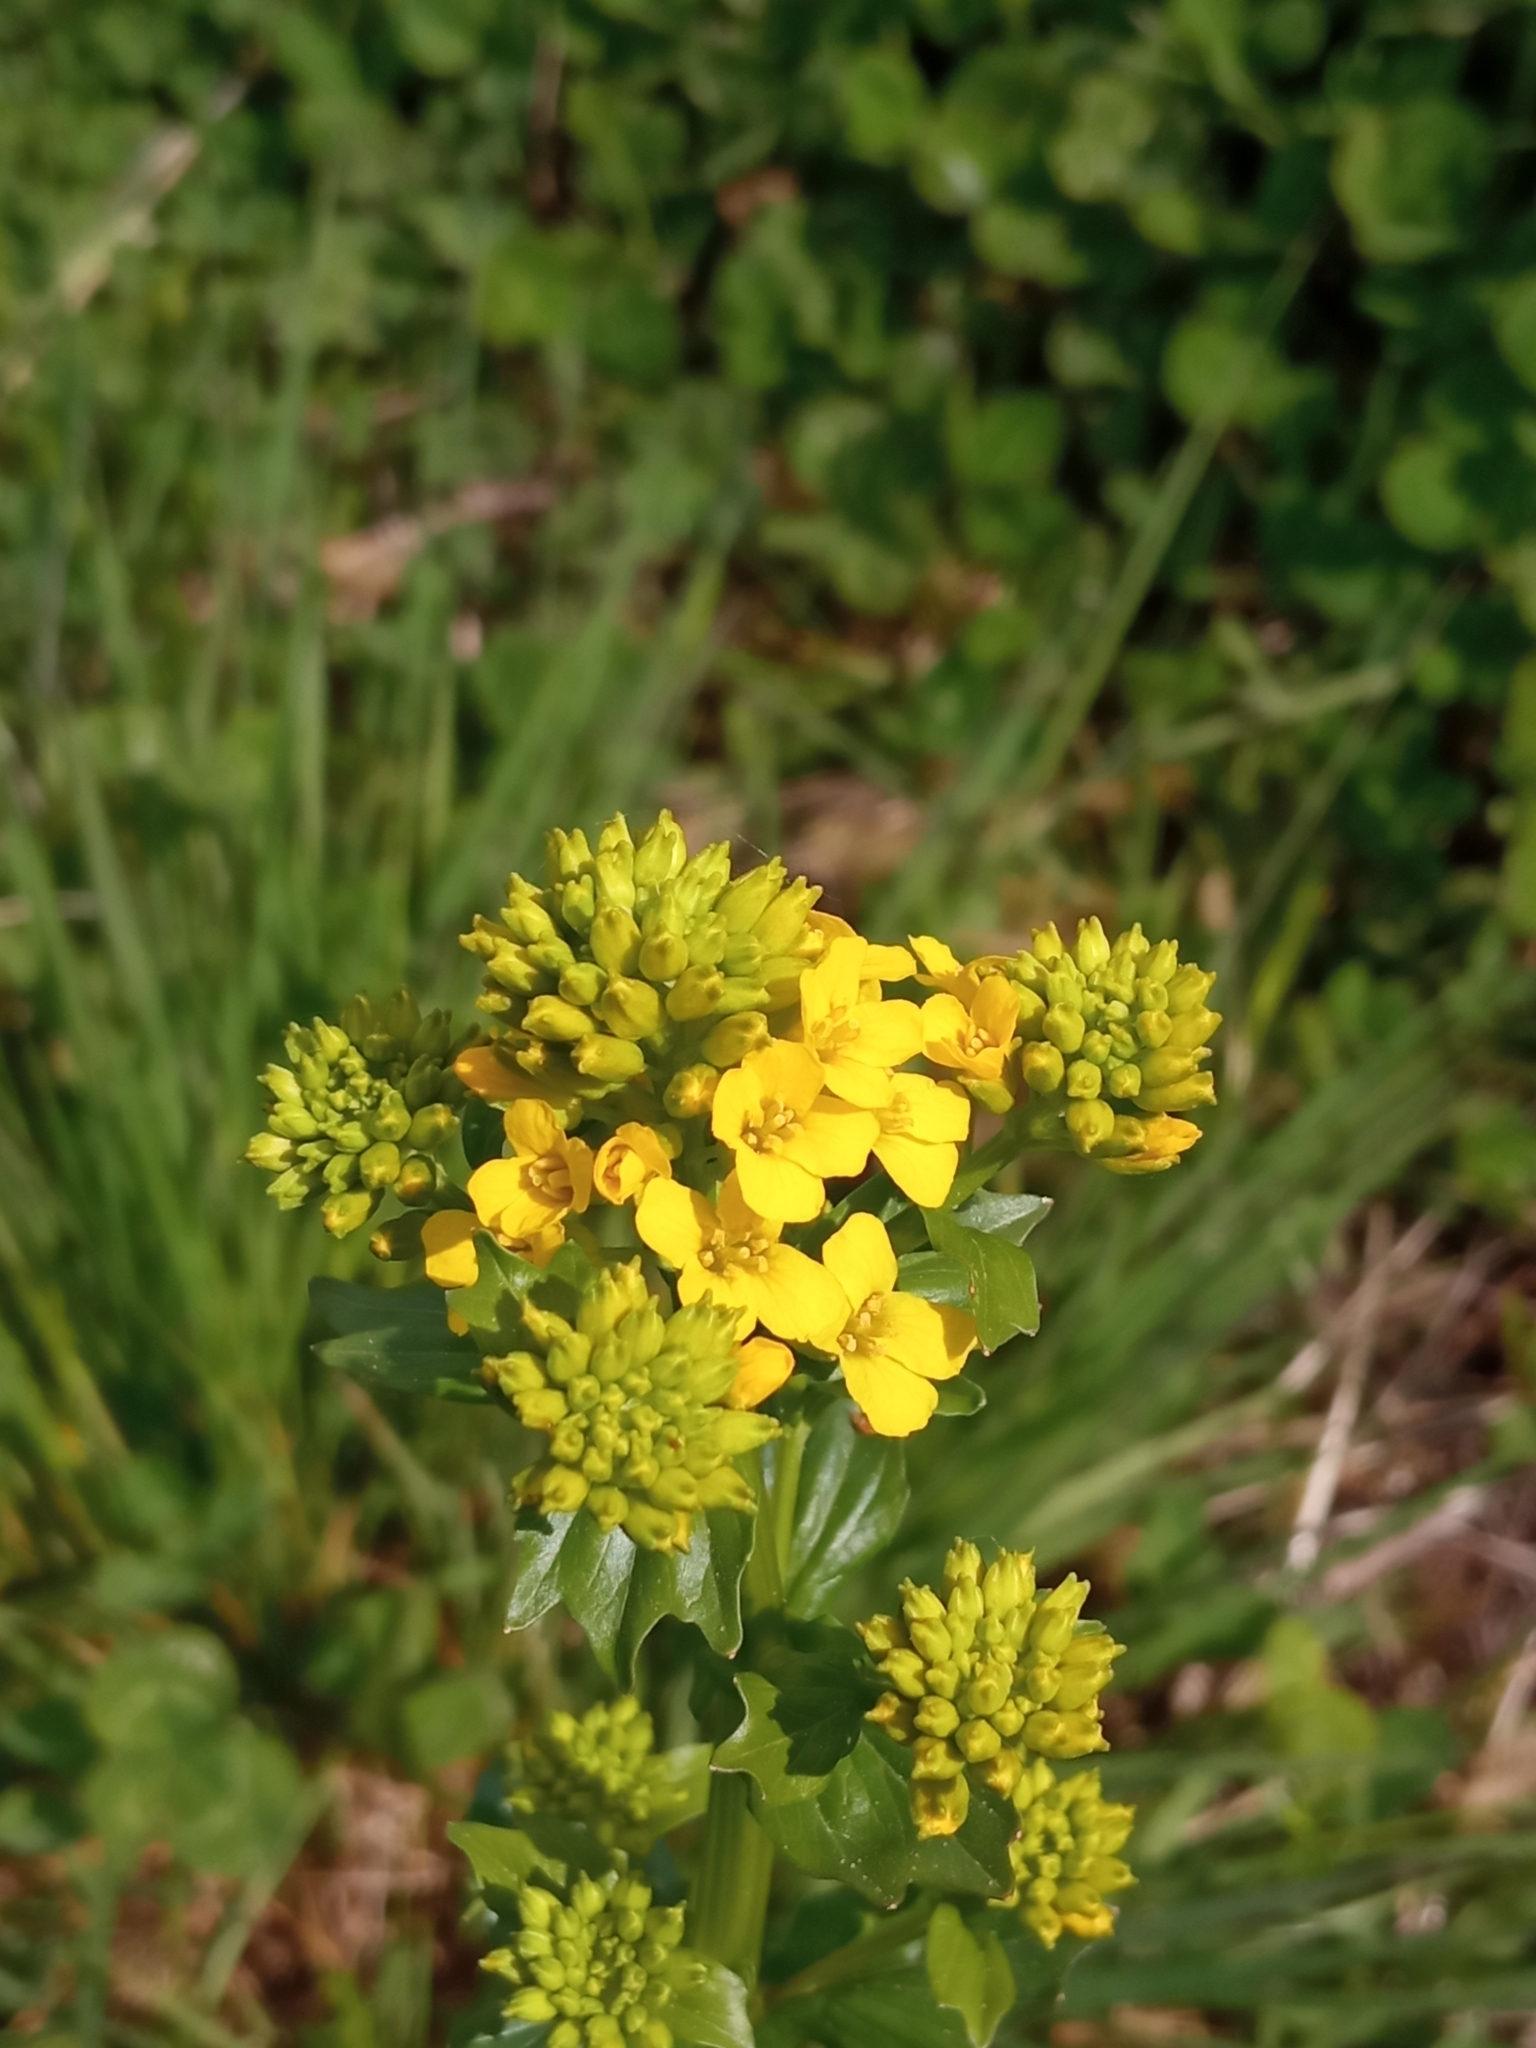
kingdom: Plantae
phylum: Tracheophyta
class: Magnoliopsida
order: Brassicales
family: Brassicaceae
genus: Barbarea
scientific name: Barbarea vulgaris
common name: Cressy-greens
